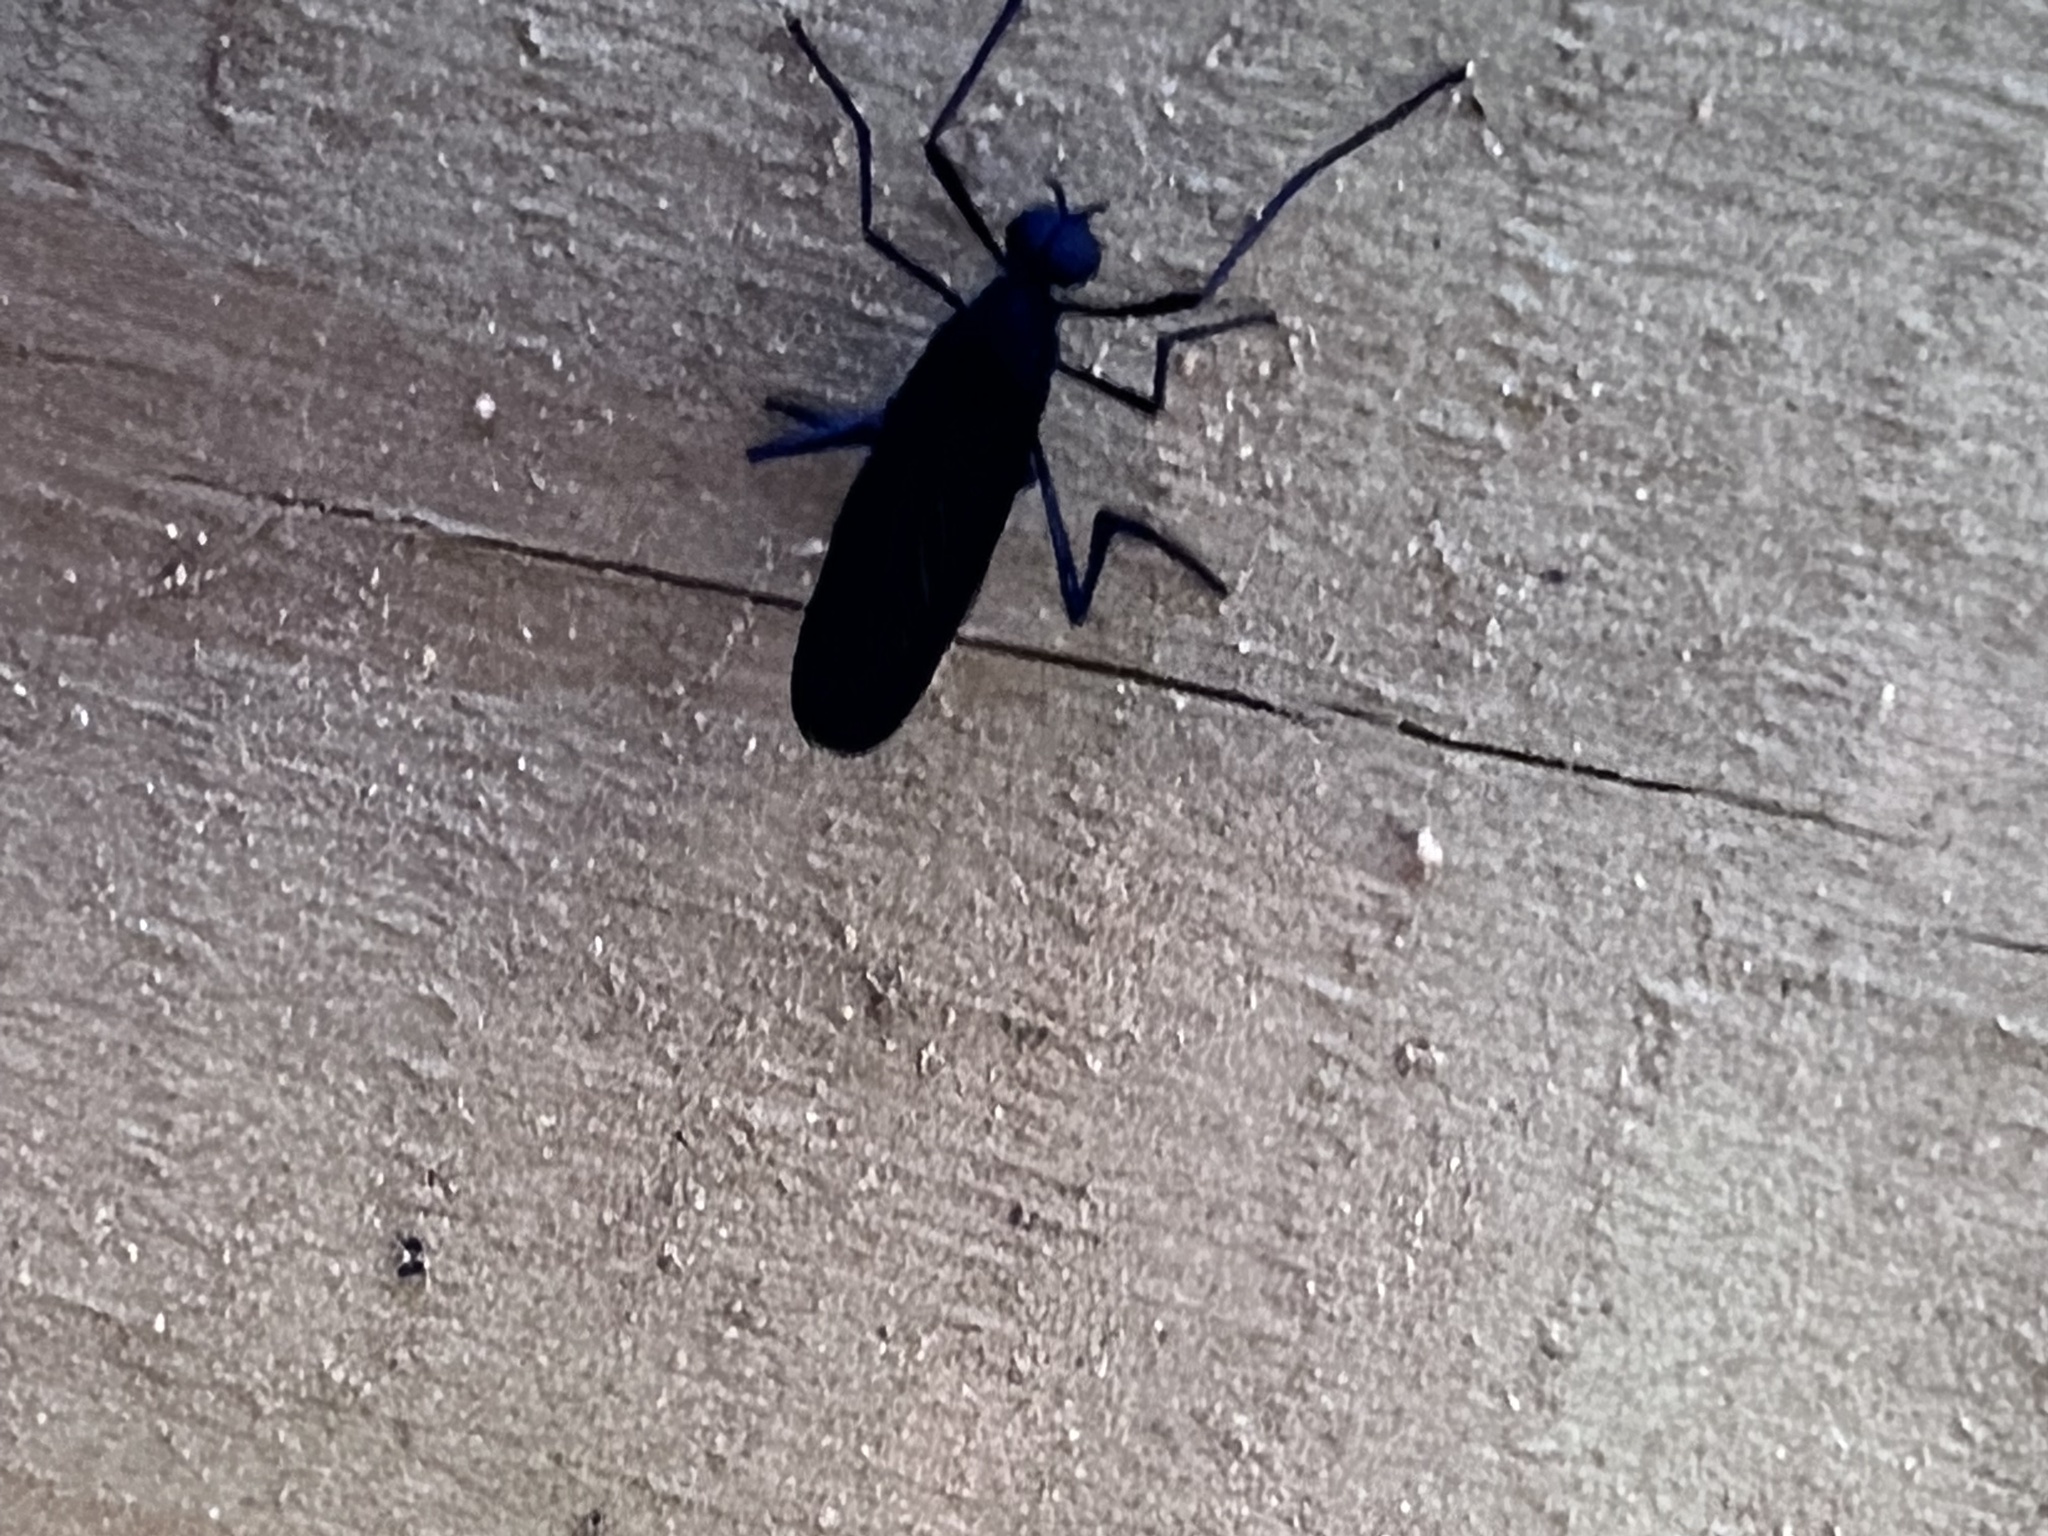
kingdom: Animalia
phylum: Arthropoda
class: Insecta
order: Diptera
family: Bibionidae
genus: Penthetria
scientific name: Penthetria heteroptera
